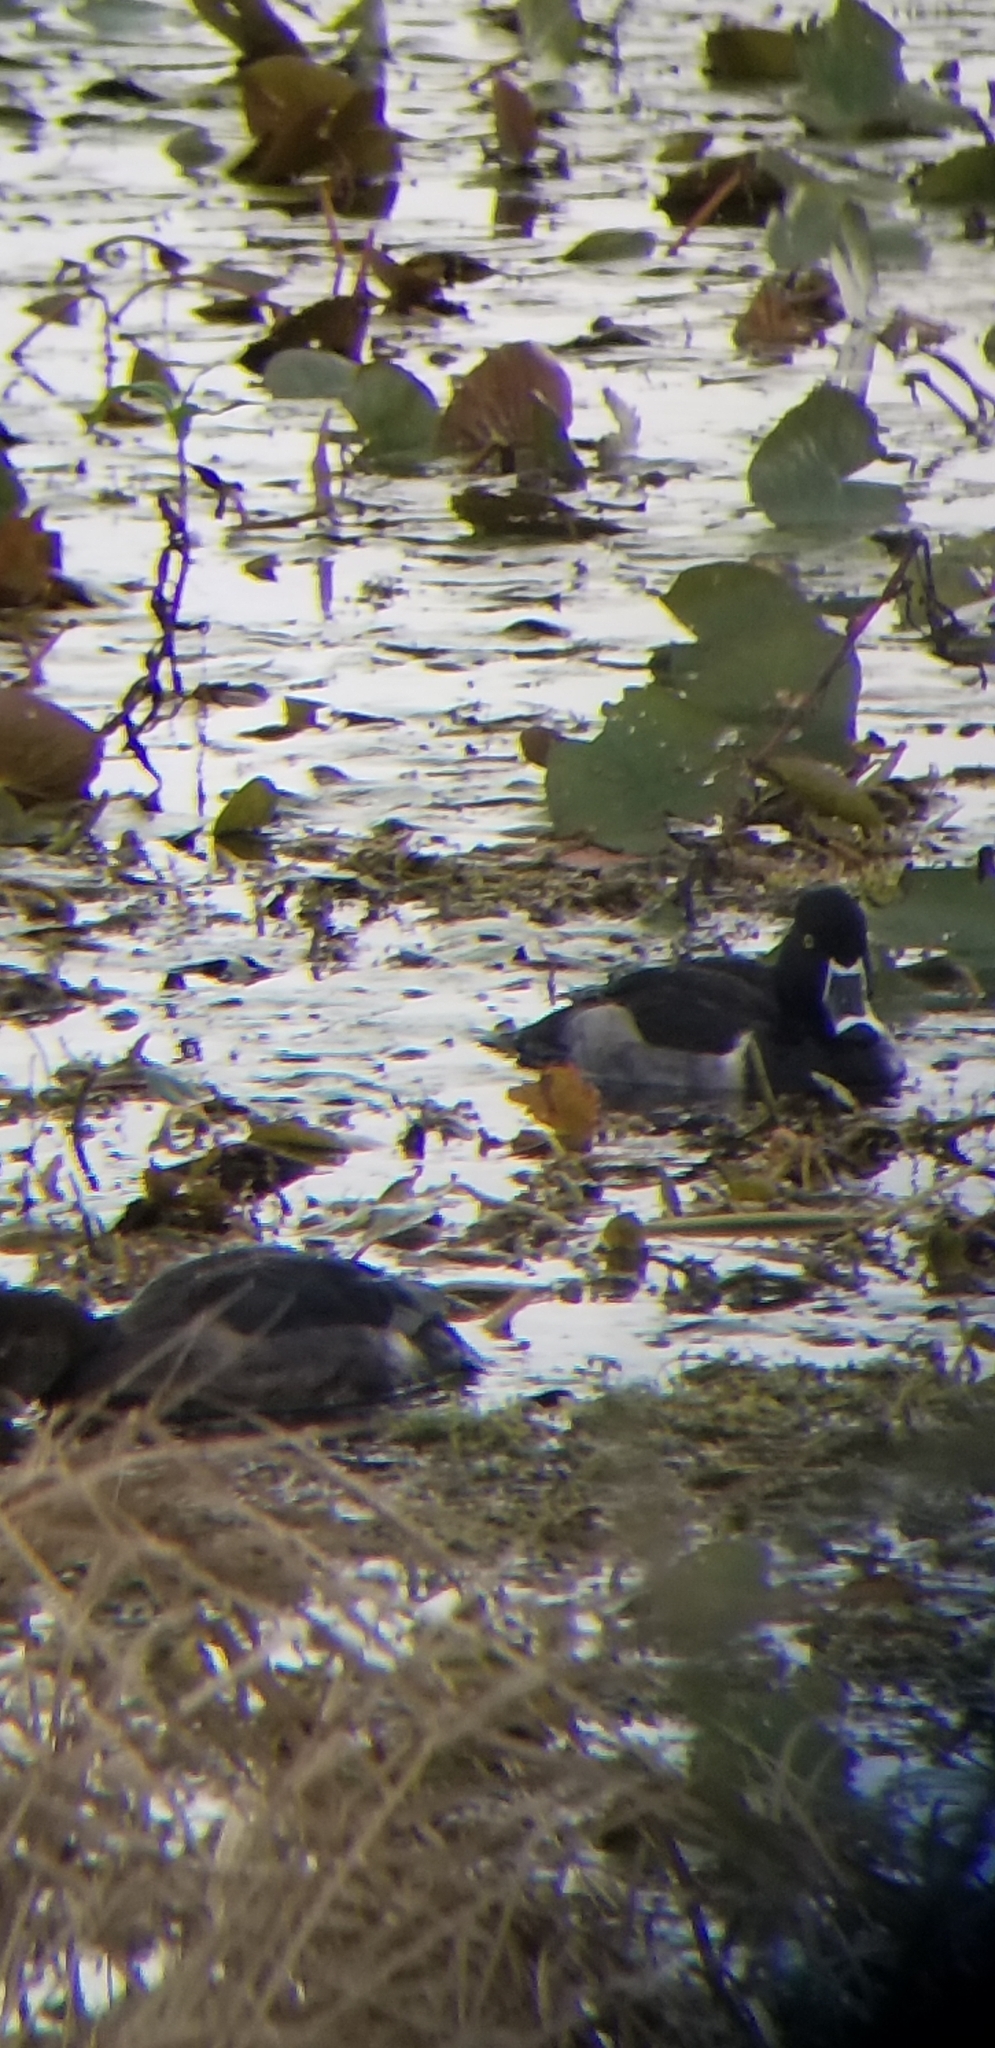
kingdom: Animalia
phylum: Chordata
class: Aves
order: Anseriformes
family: Anatidae
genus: Aythya
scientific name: Aythya collaris
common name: Ring-necked duck
